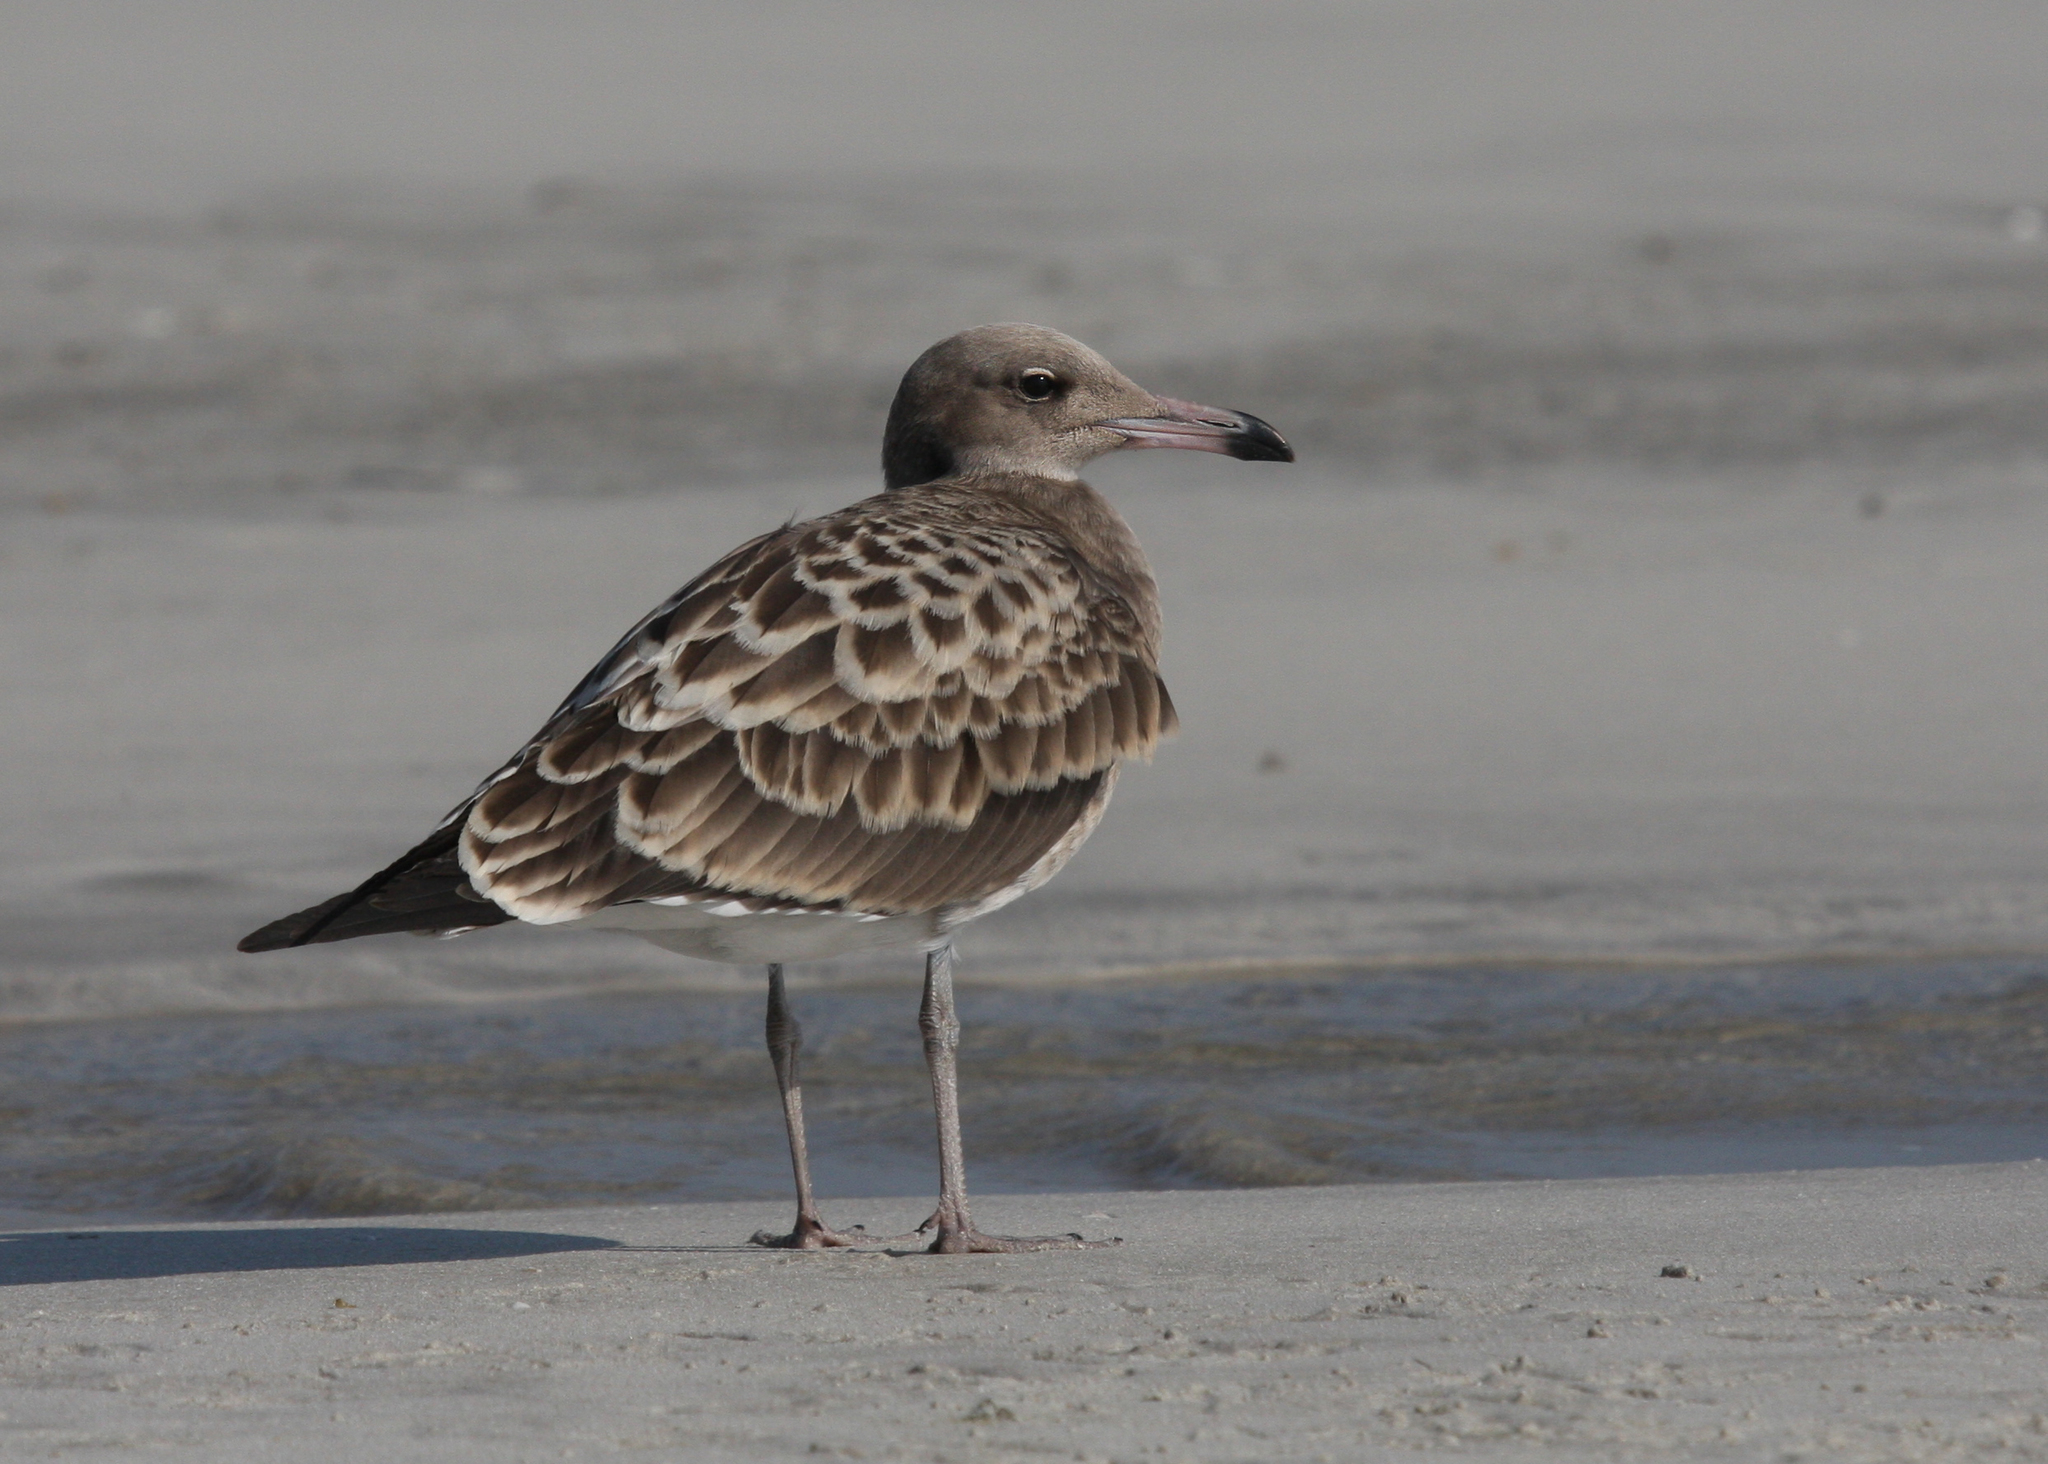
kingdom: Animalia
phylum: Chordata
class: Aves
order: Charadriiformes
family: Laridae
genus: Ichthyaetus
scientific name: Ichthyaetus hemprichii
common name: Sooty gull
